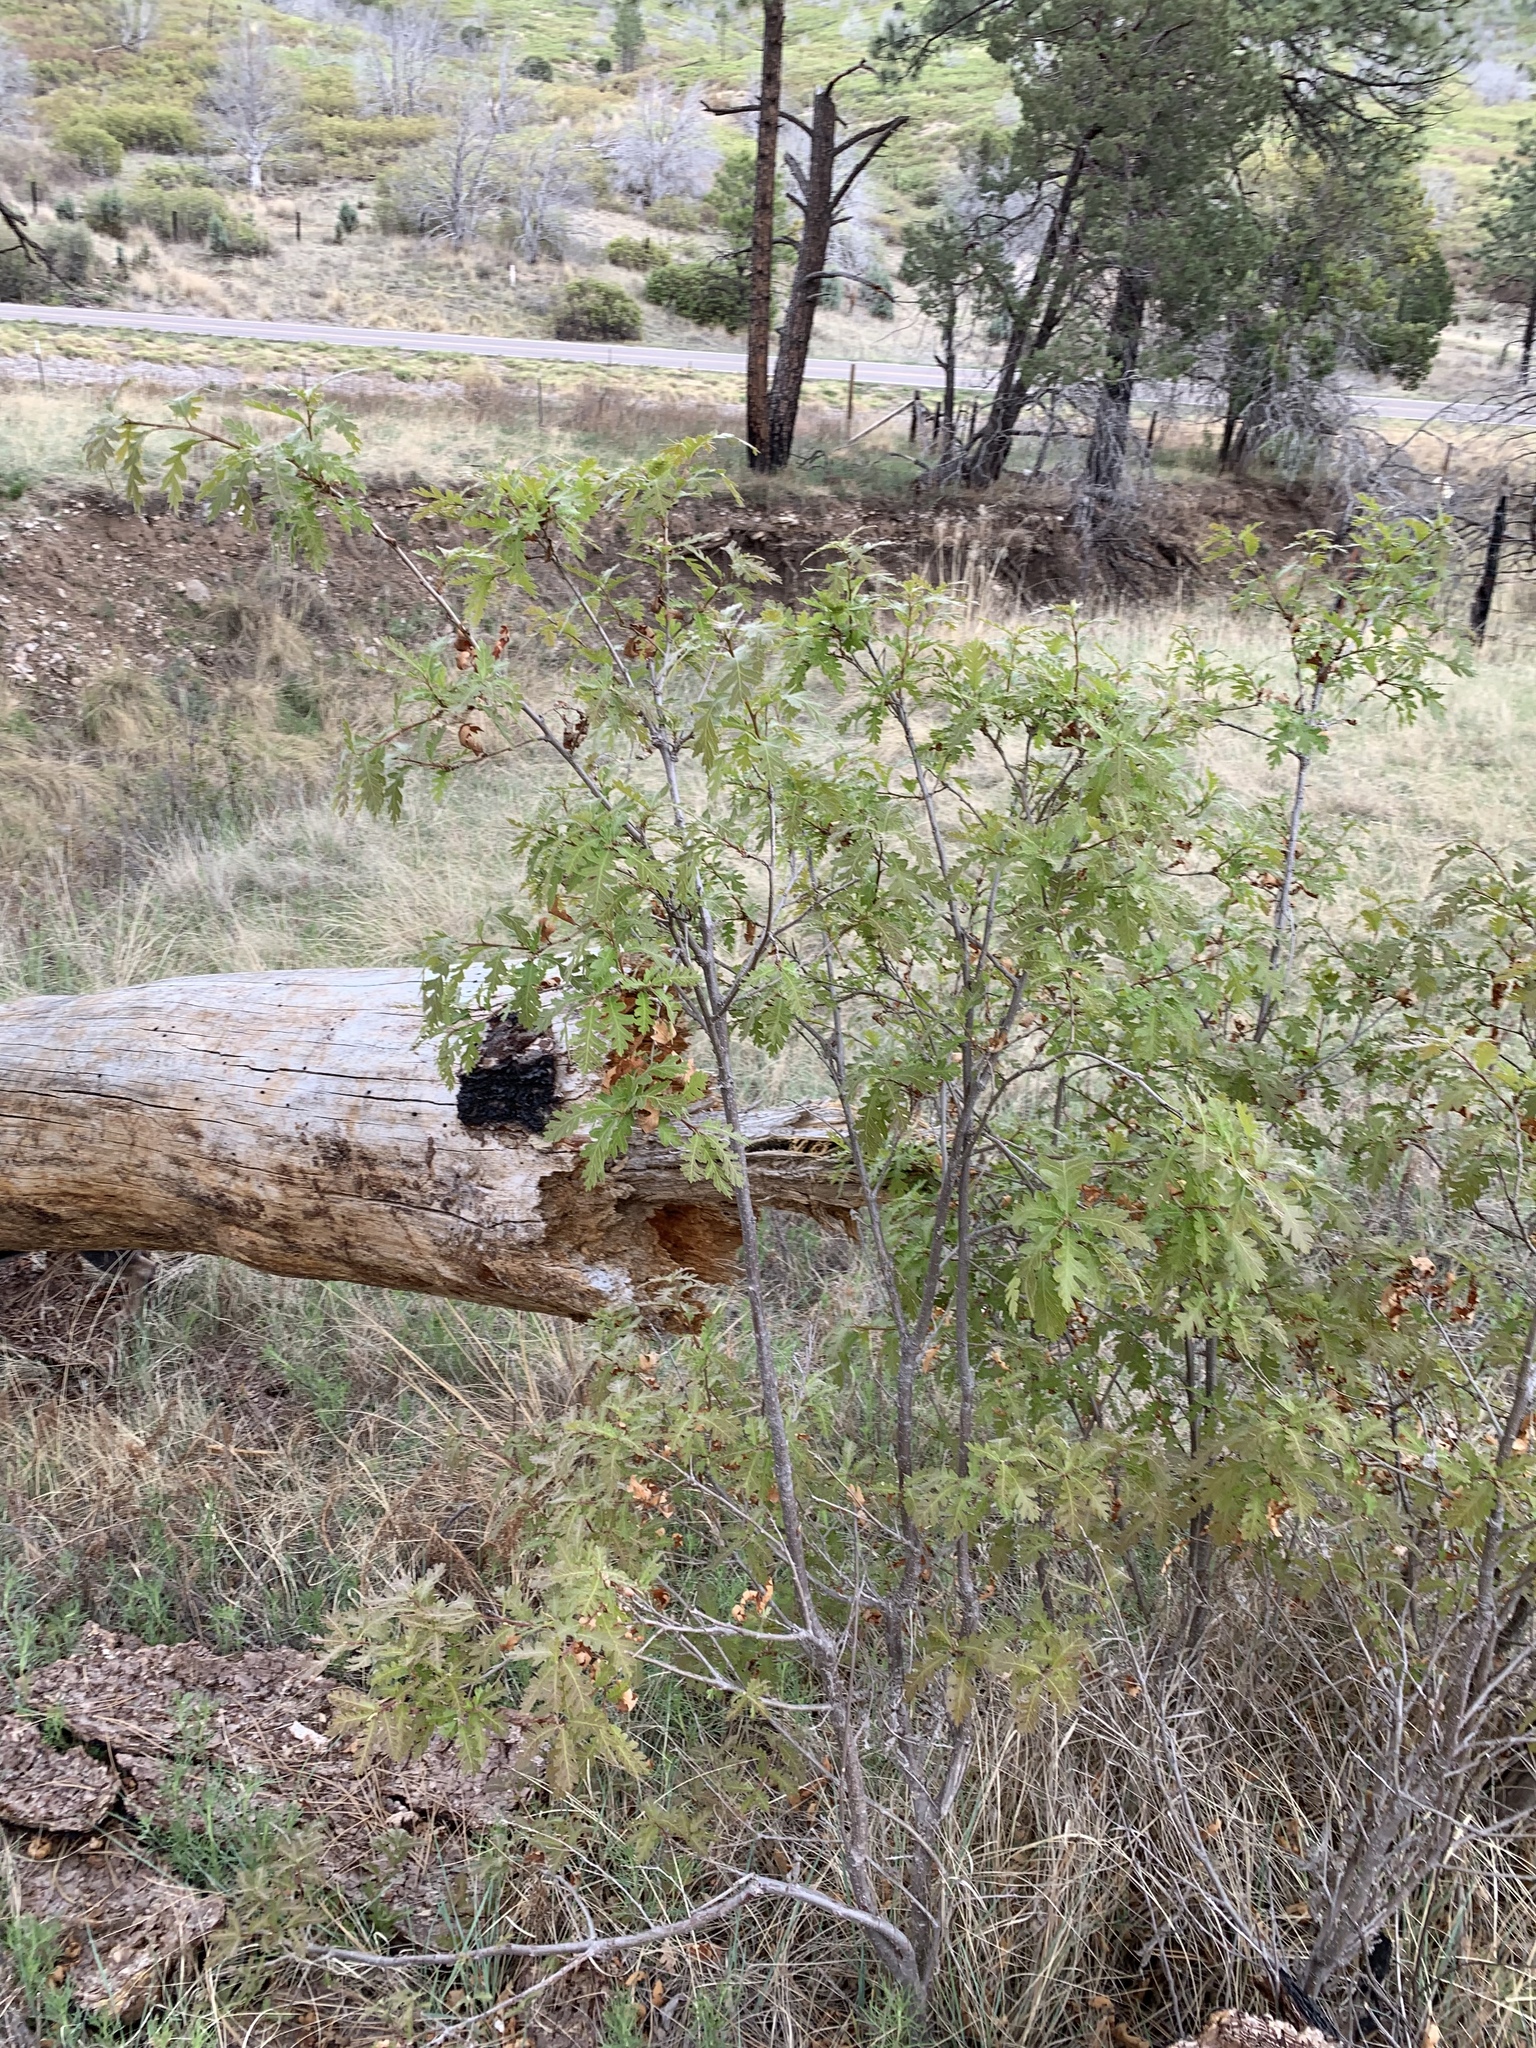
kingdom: Plantae
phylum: Tracheophyta
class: Magnoliopsida
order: Fagales
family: Fagaceae
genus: Quercus
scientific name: Quercus gambelii
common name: Gambel oak
